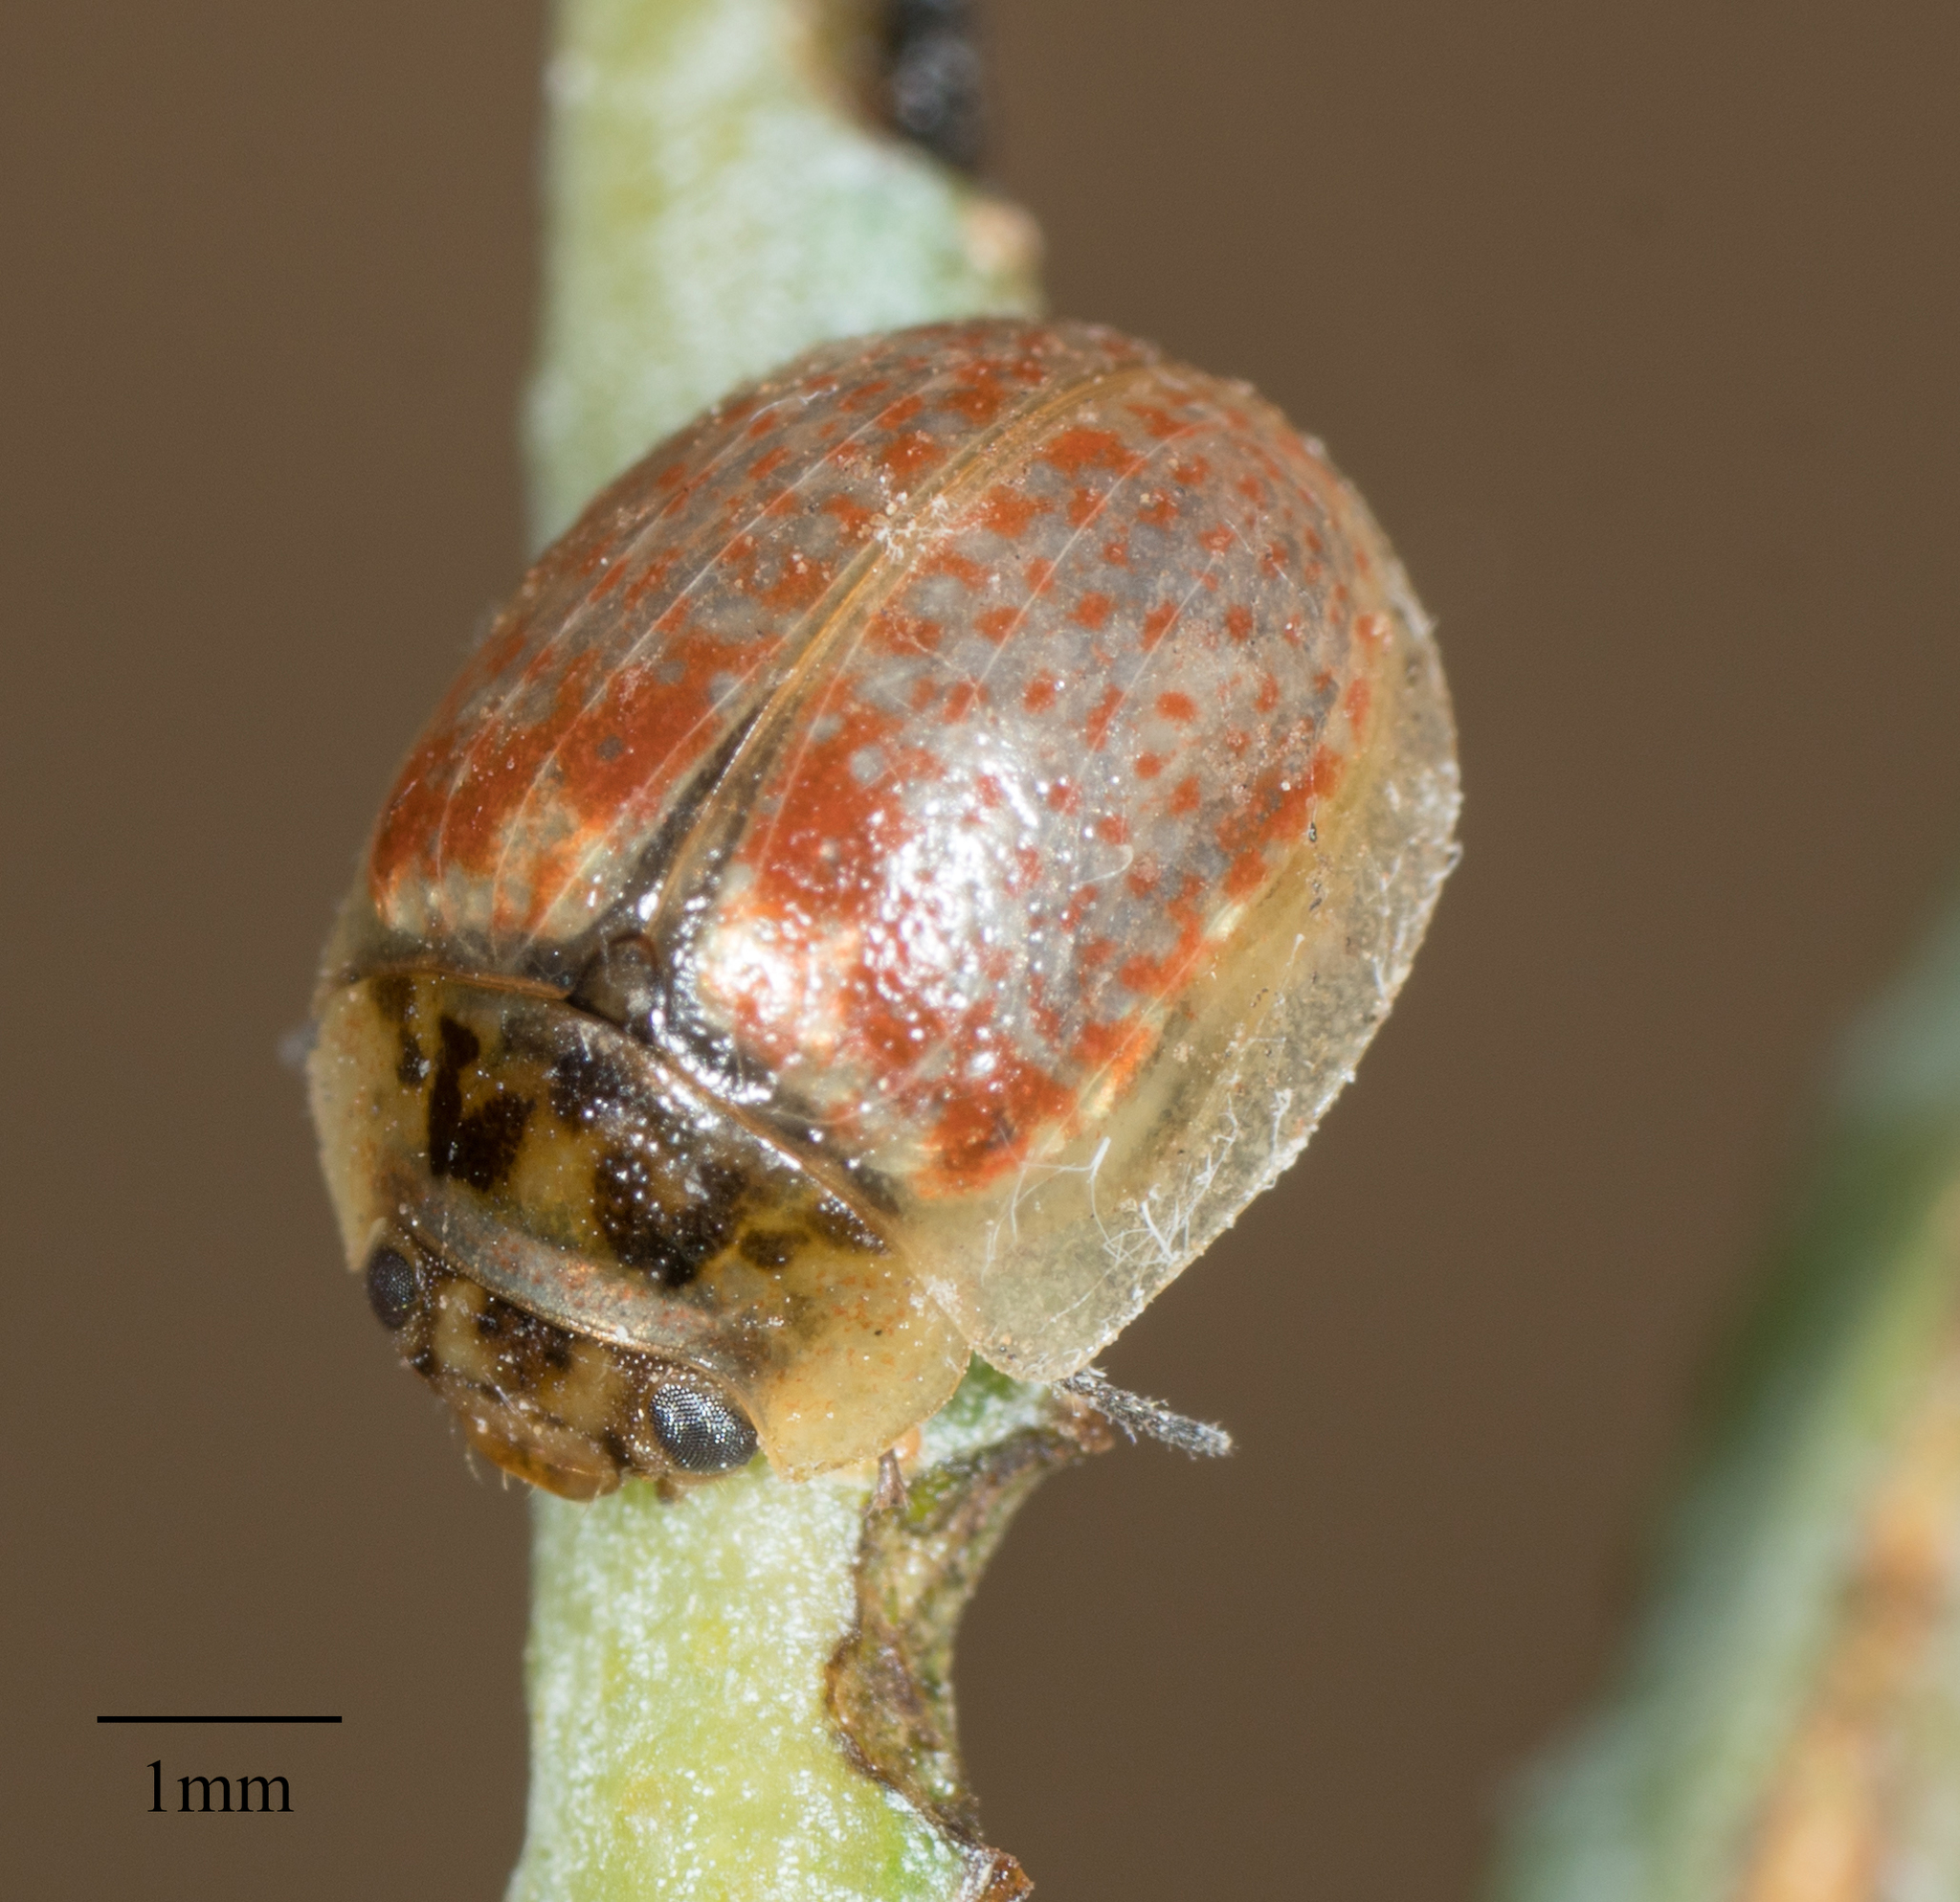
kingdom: Animalia
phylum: Arthropoda
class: Insecta
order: Coleoptera
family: Chrysomelidae
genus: Paropsisterna
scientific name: Paropsisterna m-fuscum
